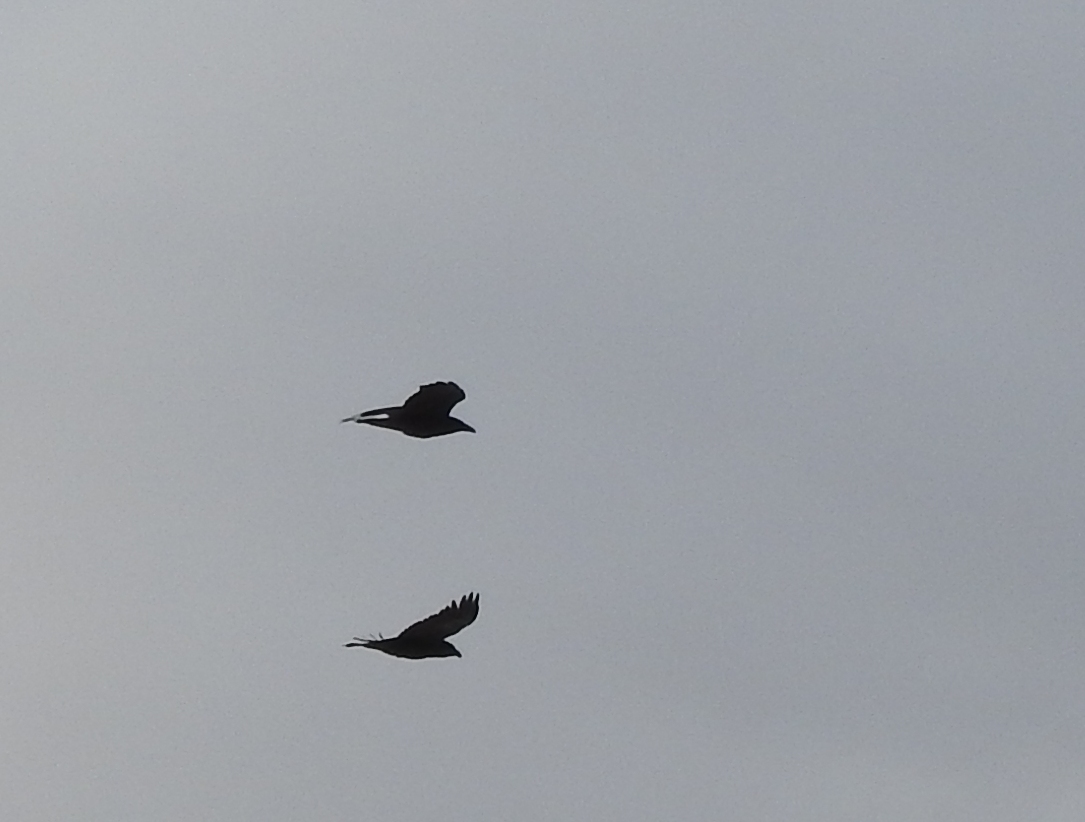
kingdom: Animalia
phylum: Chordata
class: Aves
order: Passeriformes
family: Corvidae
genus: Corvus
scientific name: Corvus corax
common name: Common raven
